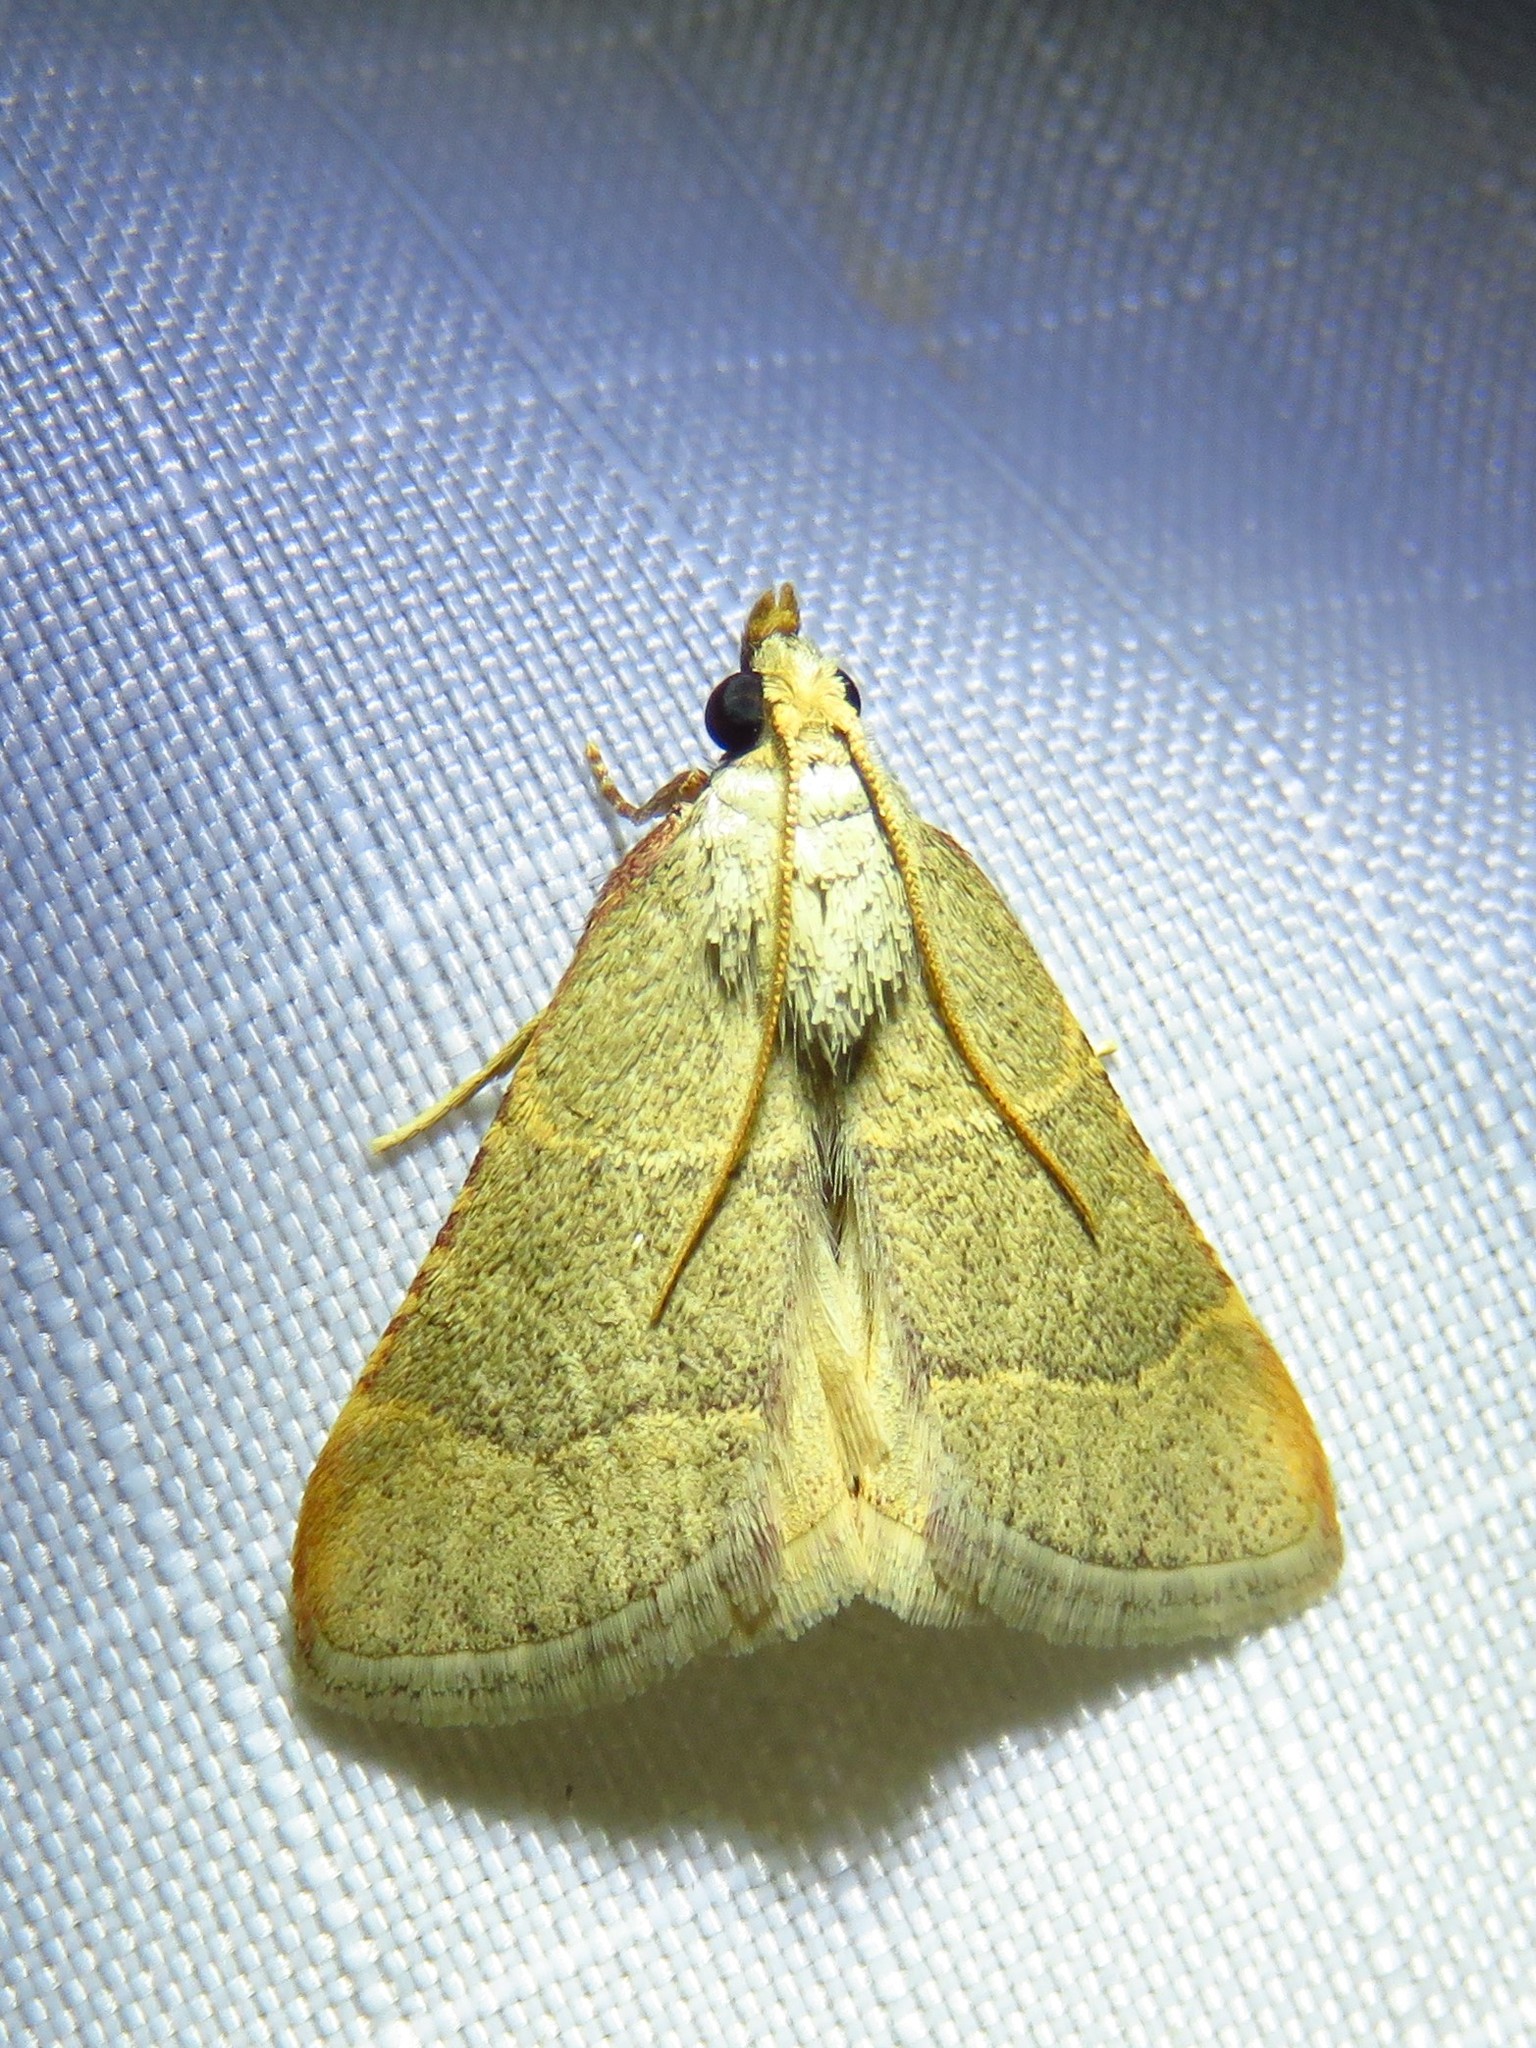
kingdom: Animalia
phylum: Arthropoda
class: Insecta
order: Lepidoptera
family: Pyralidae
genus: Hypsopygia
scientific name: Hypsopygia planalis
